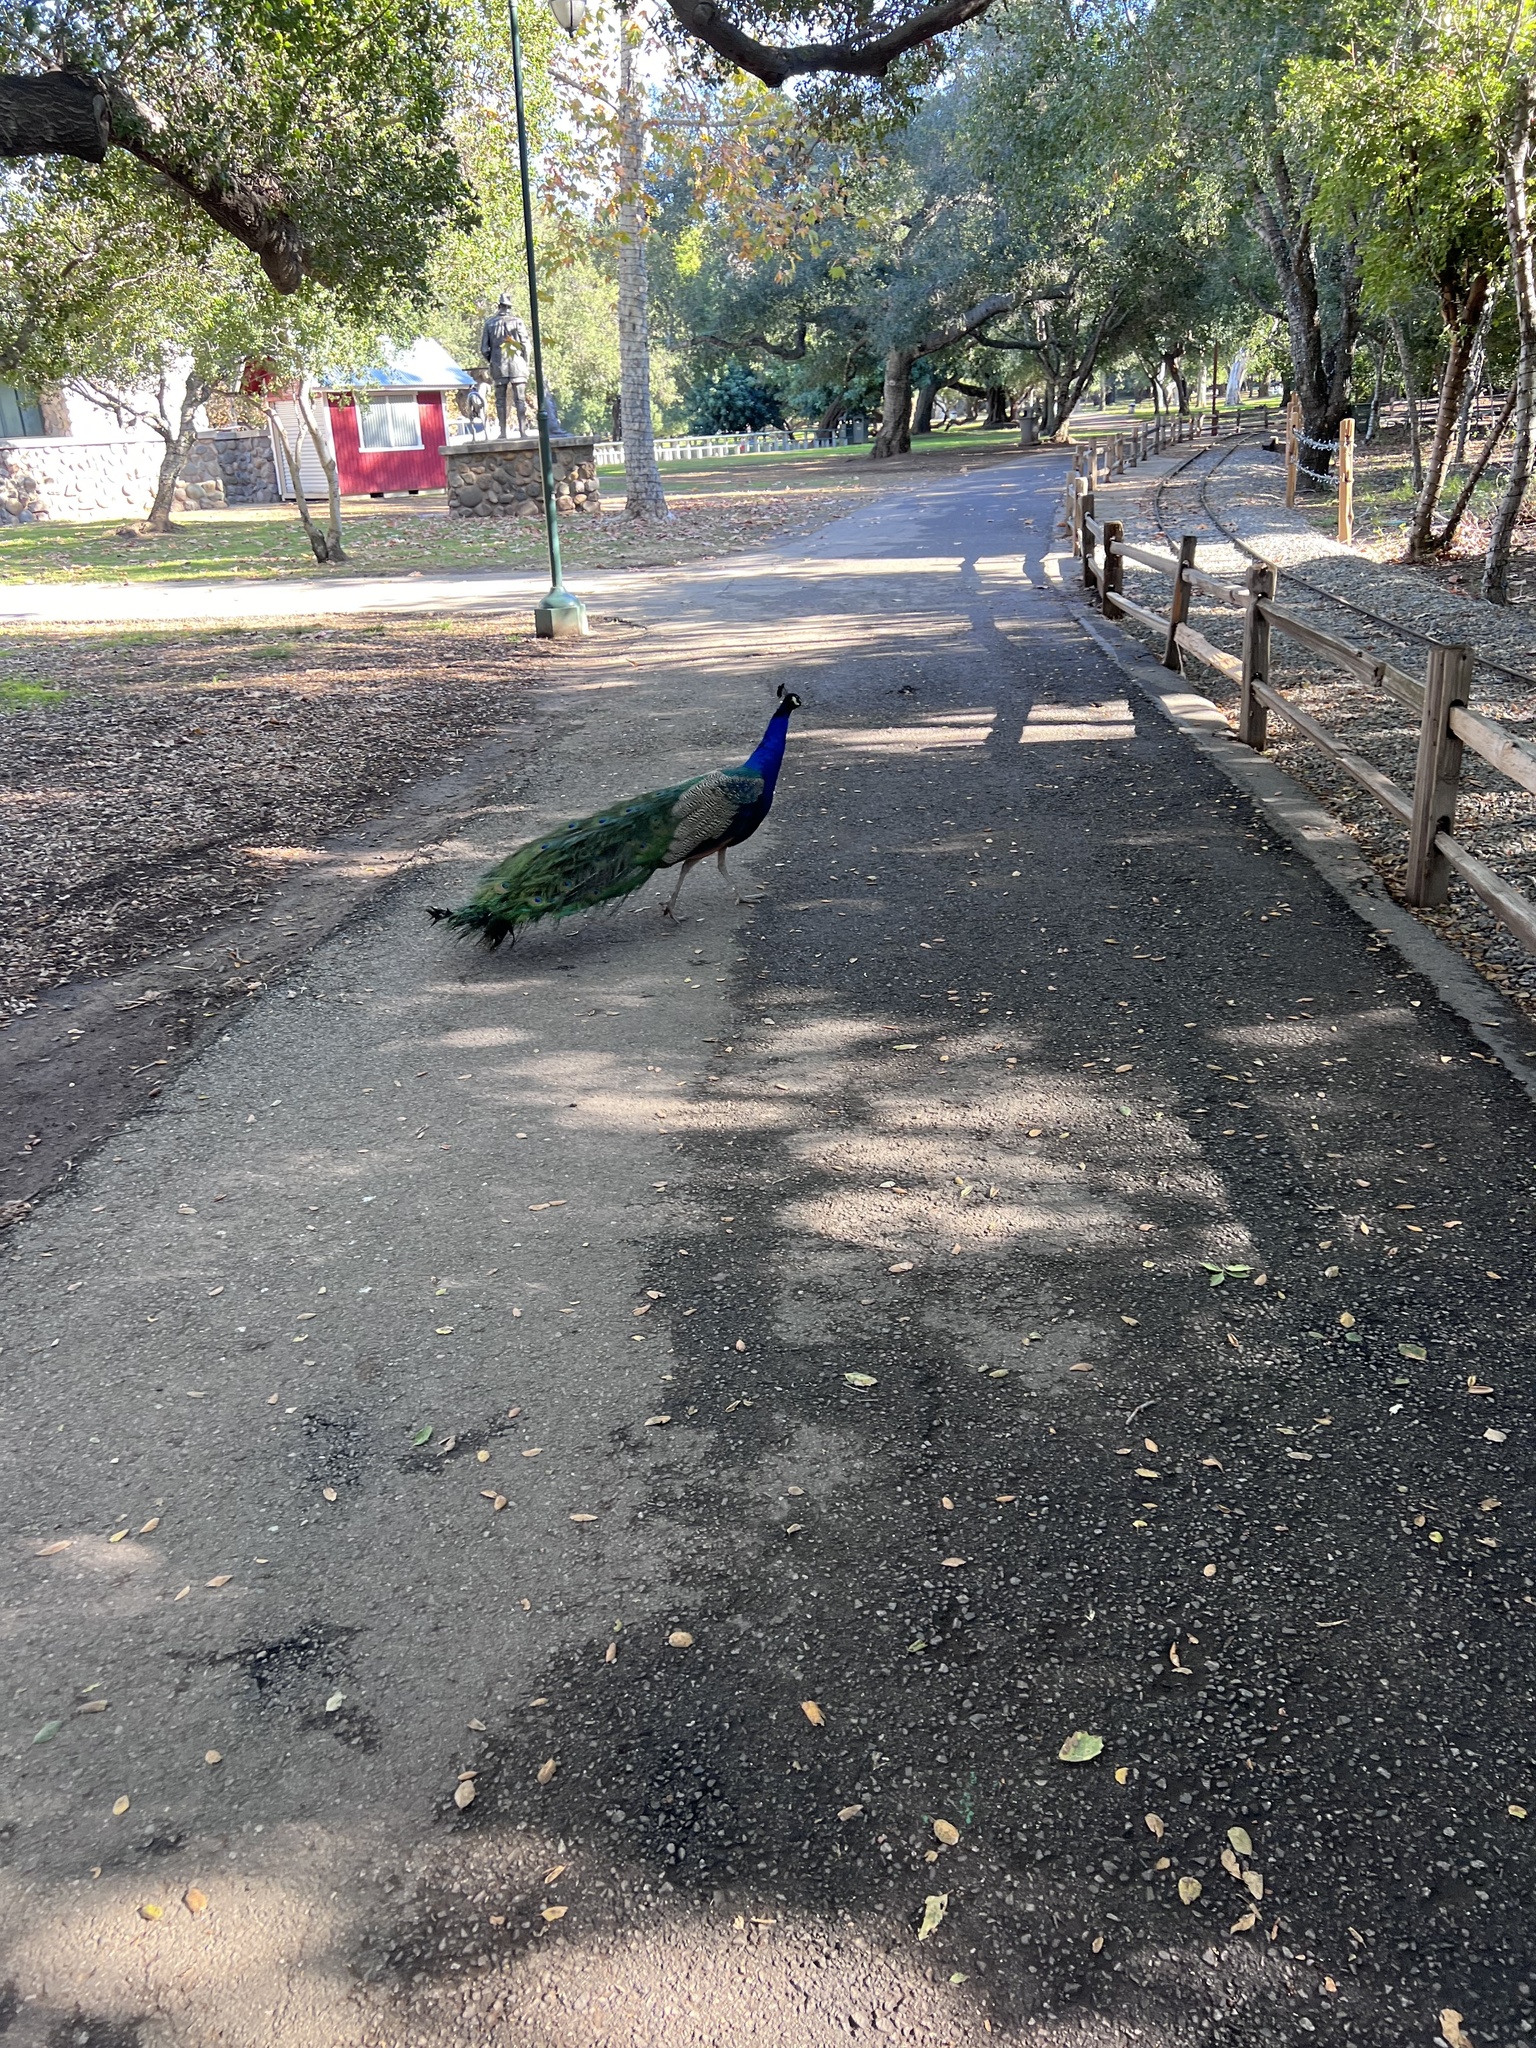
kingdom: Animalia
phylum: Chordata
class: Aves
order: Galliformes
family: Phasianidae
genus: Pavo
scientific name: Pavo cristatus
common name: Indian peafowl
